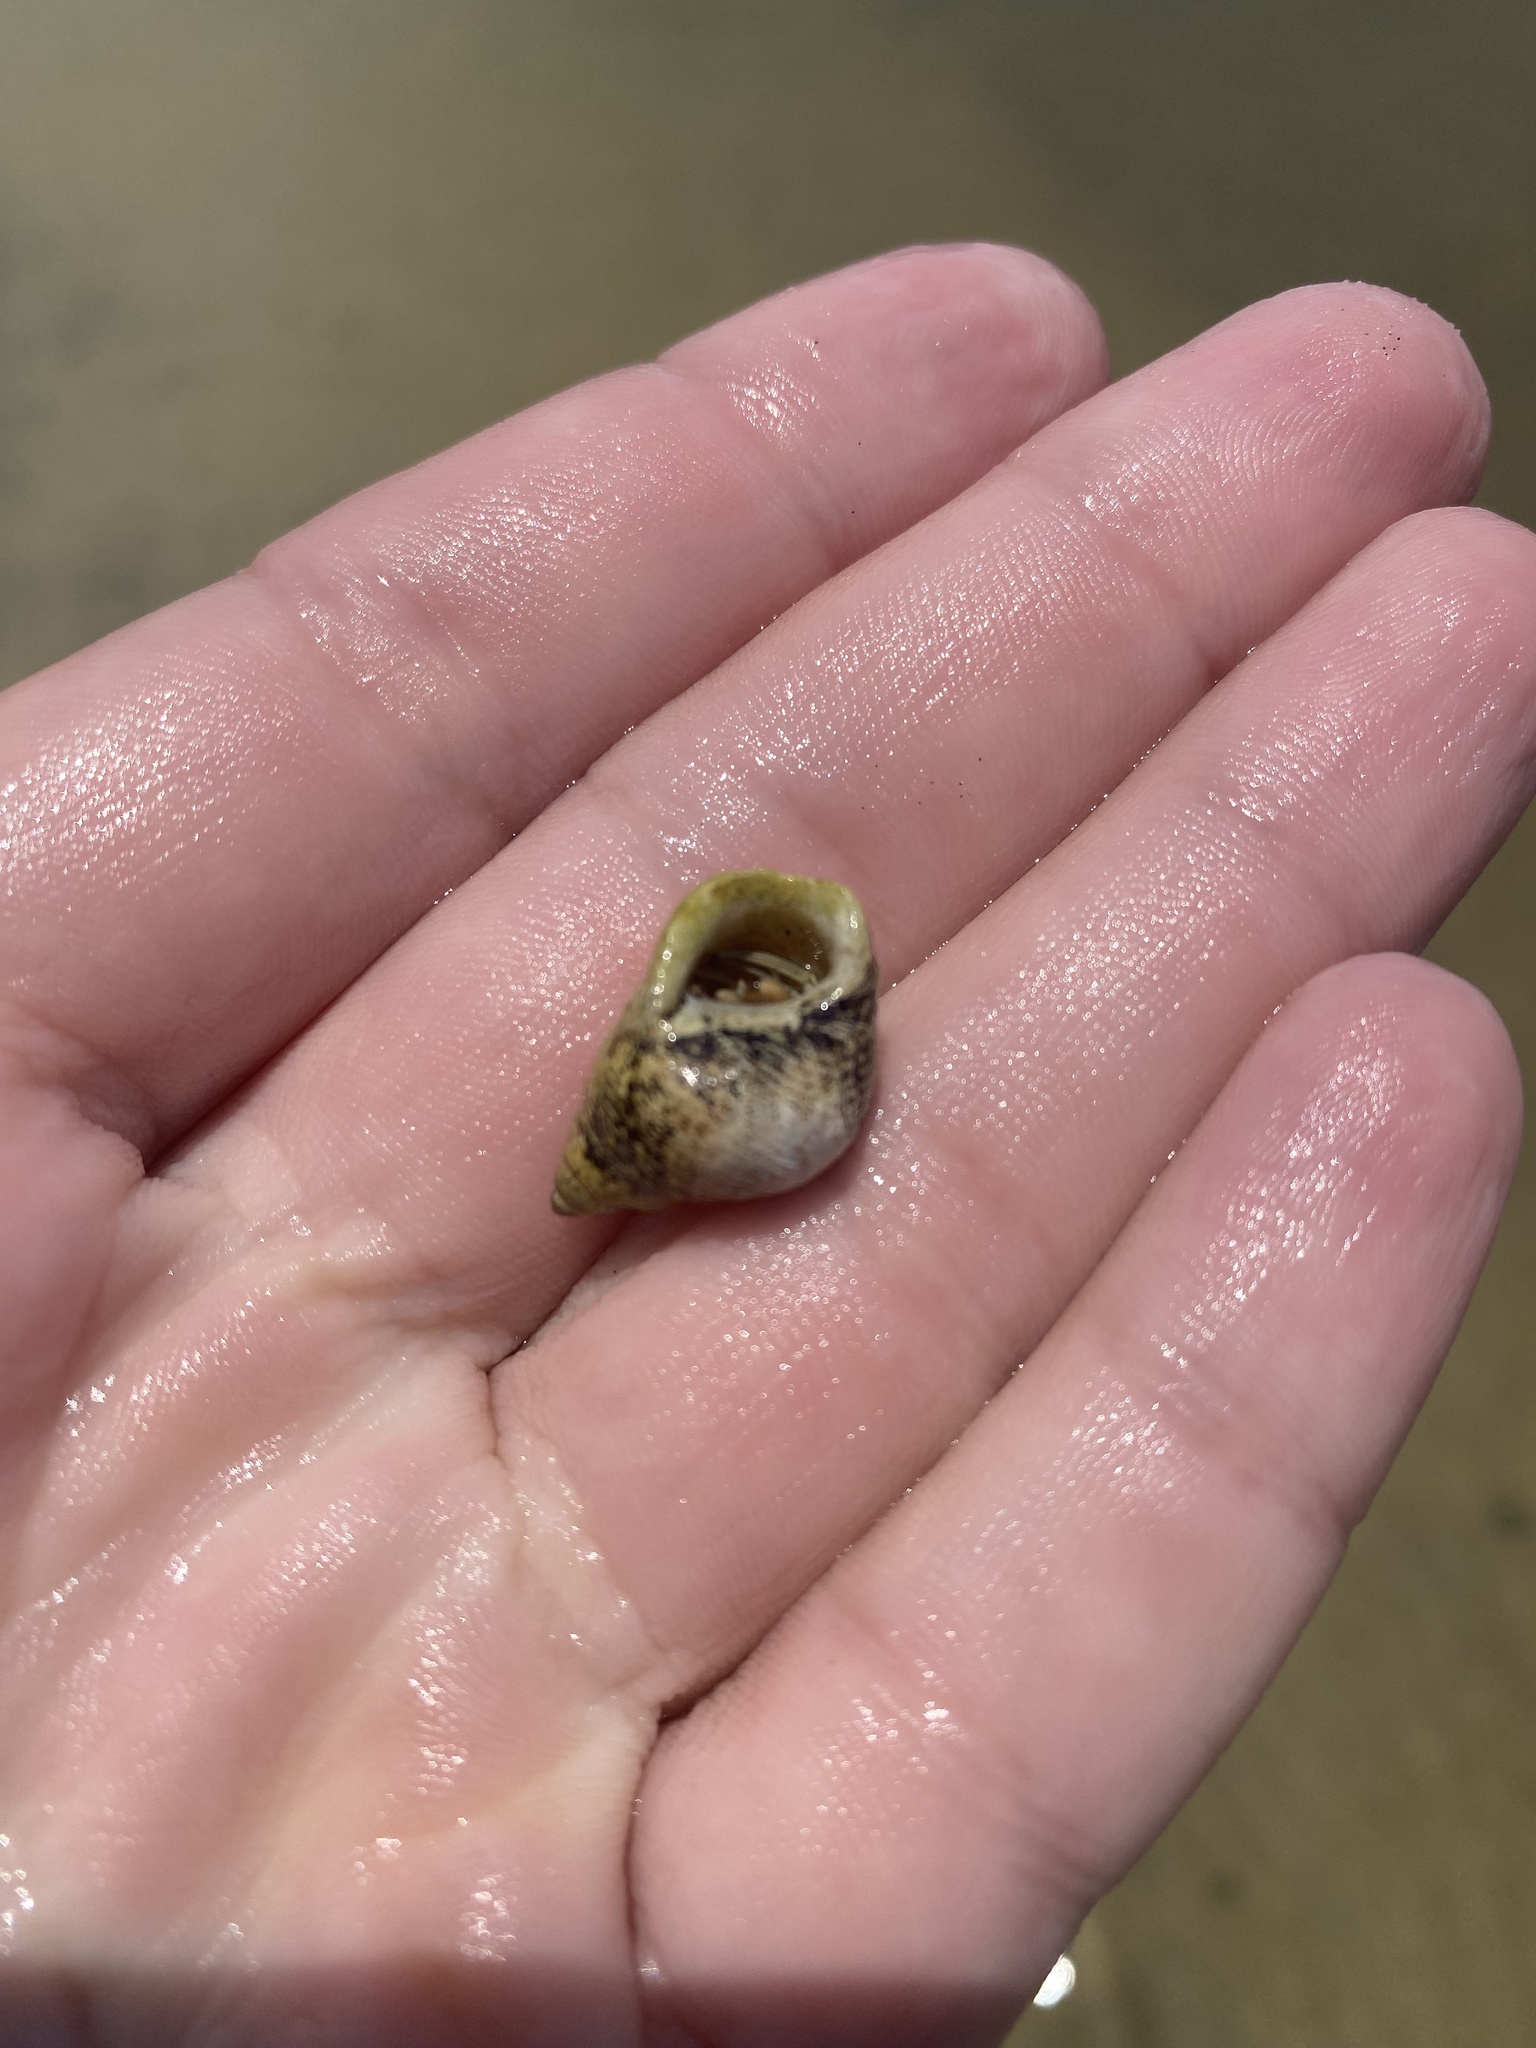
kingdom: Animalia
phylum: Mollusca
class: Gastropoda
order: Littorinimorpha
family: Littorinidae
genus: Littoraria
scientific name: Littoraria irrorata
